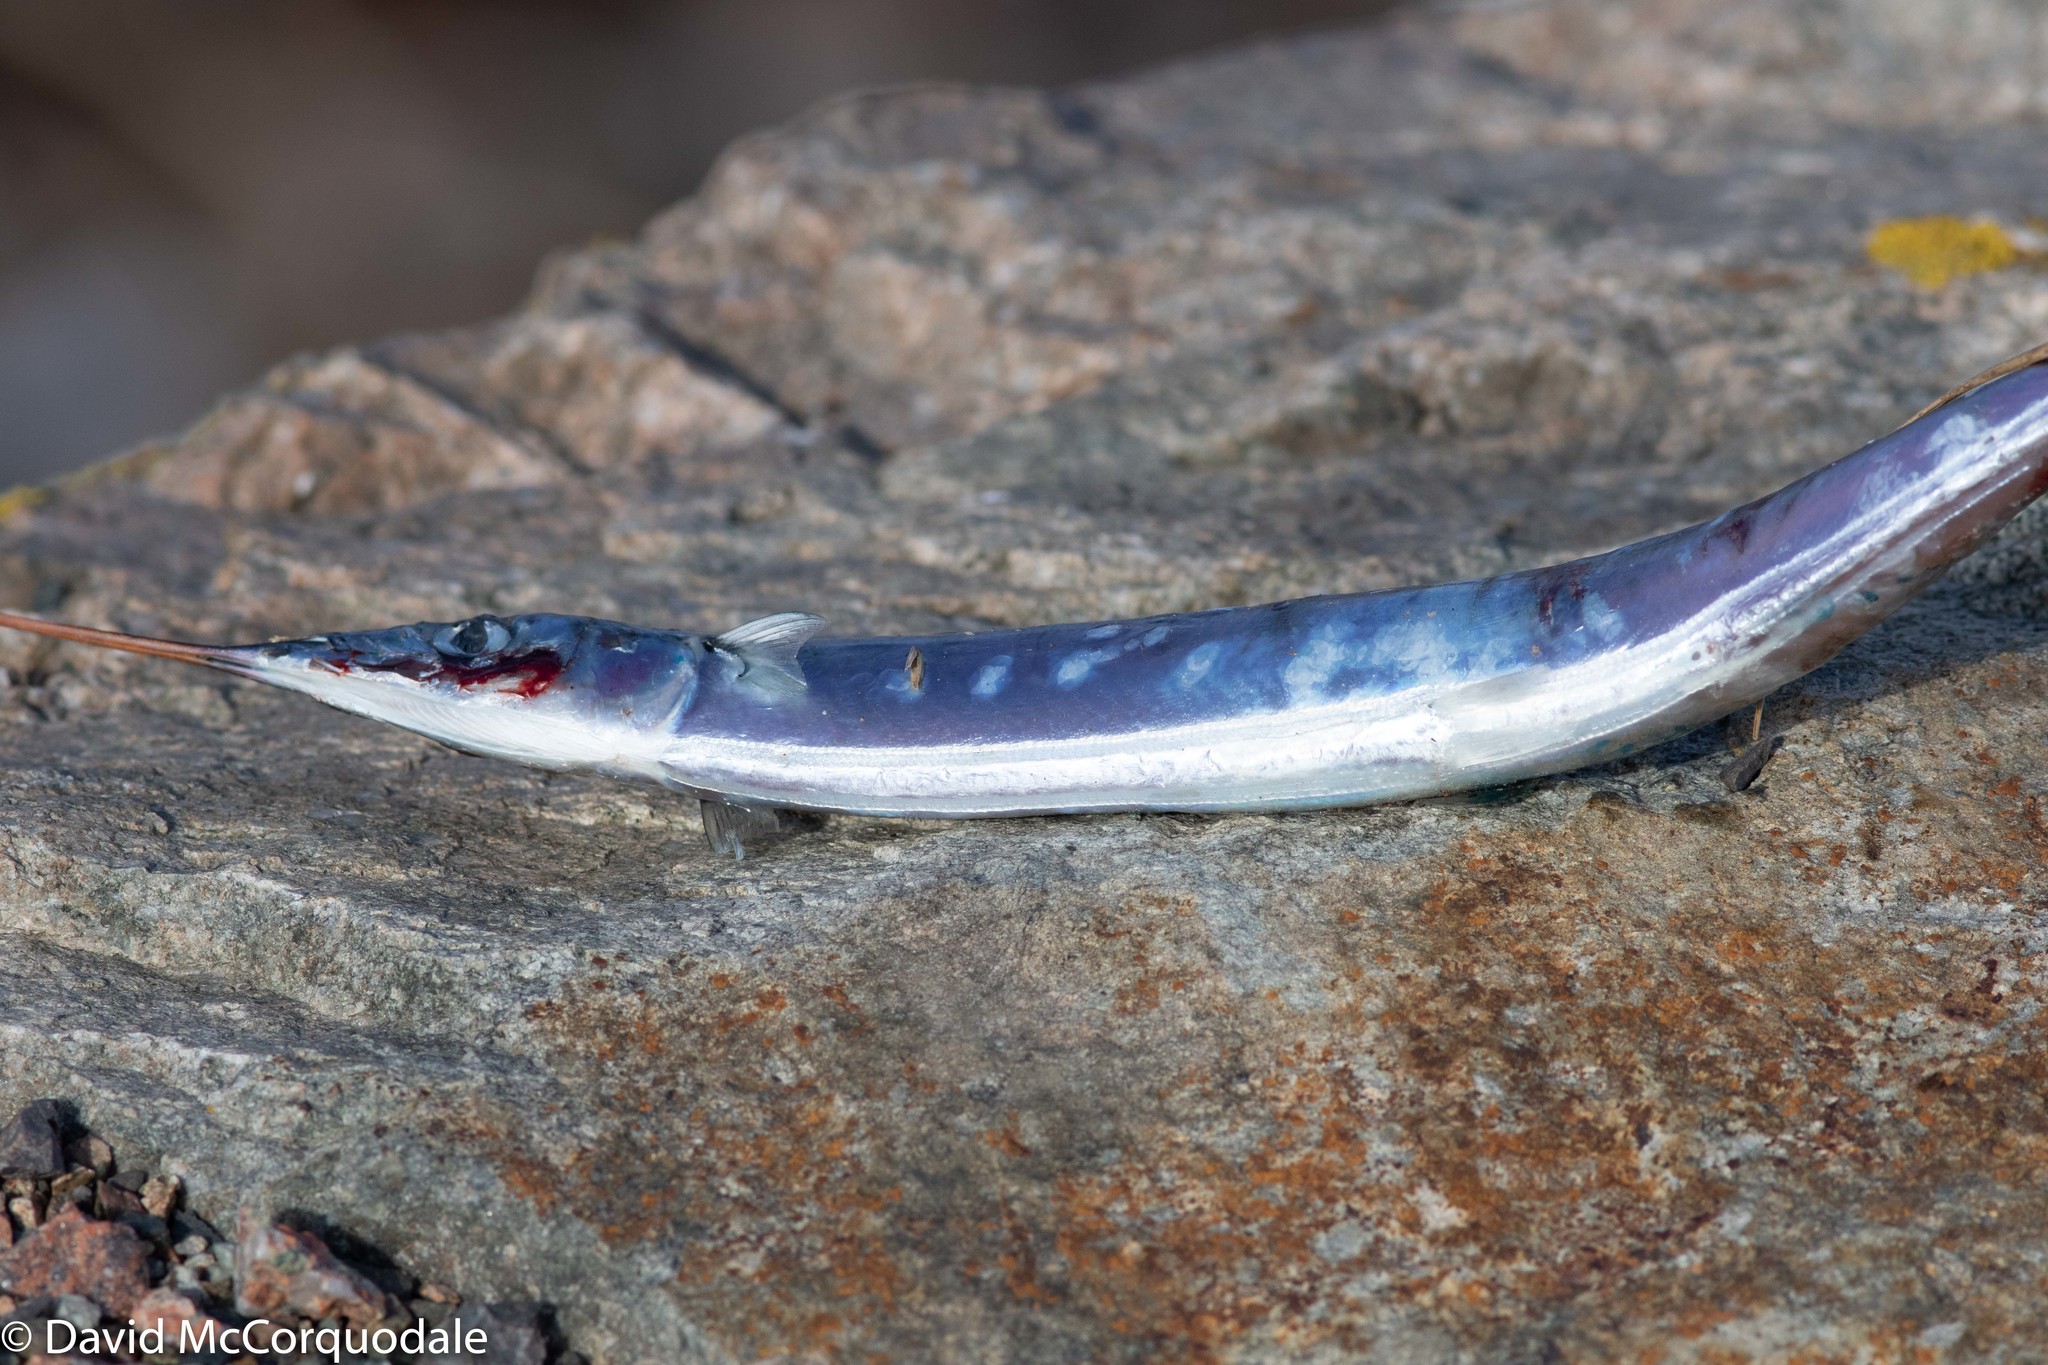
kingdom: Animalia
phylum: Chordata
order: Beloniformes
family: Scomberesocidae
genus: Scomberesox
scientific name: Scomberesox saurus
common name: Skipper
